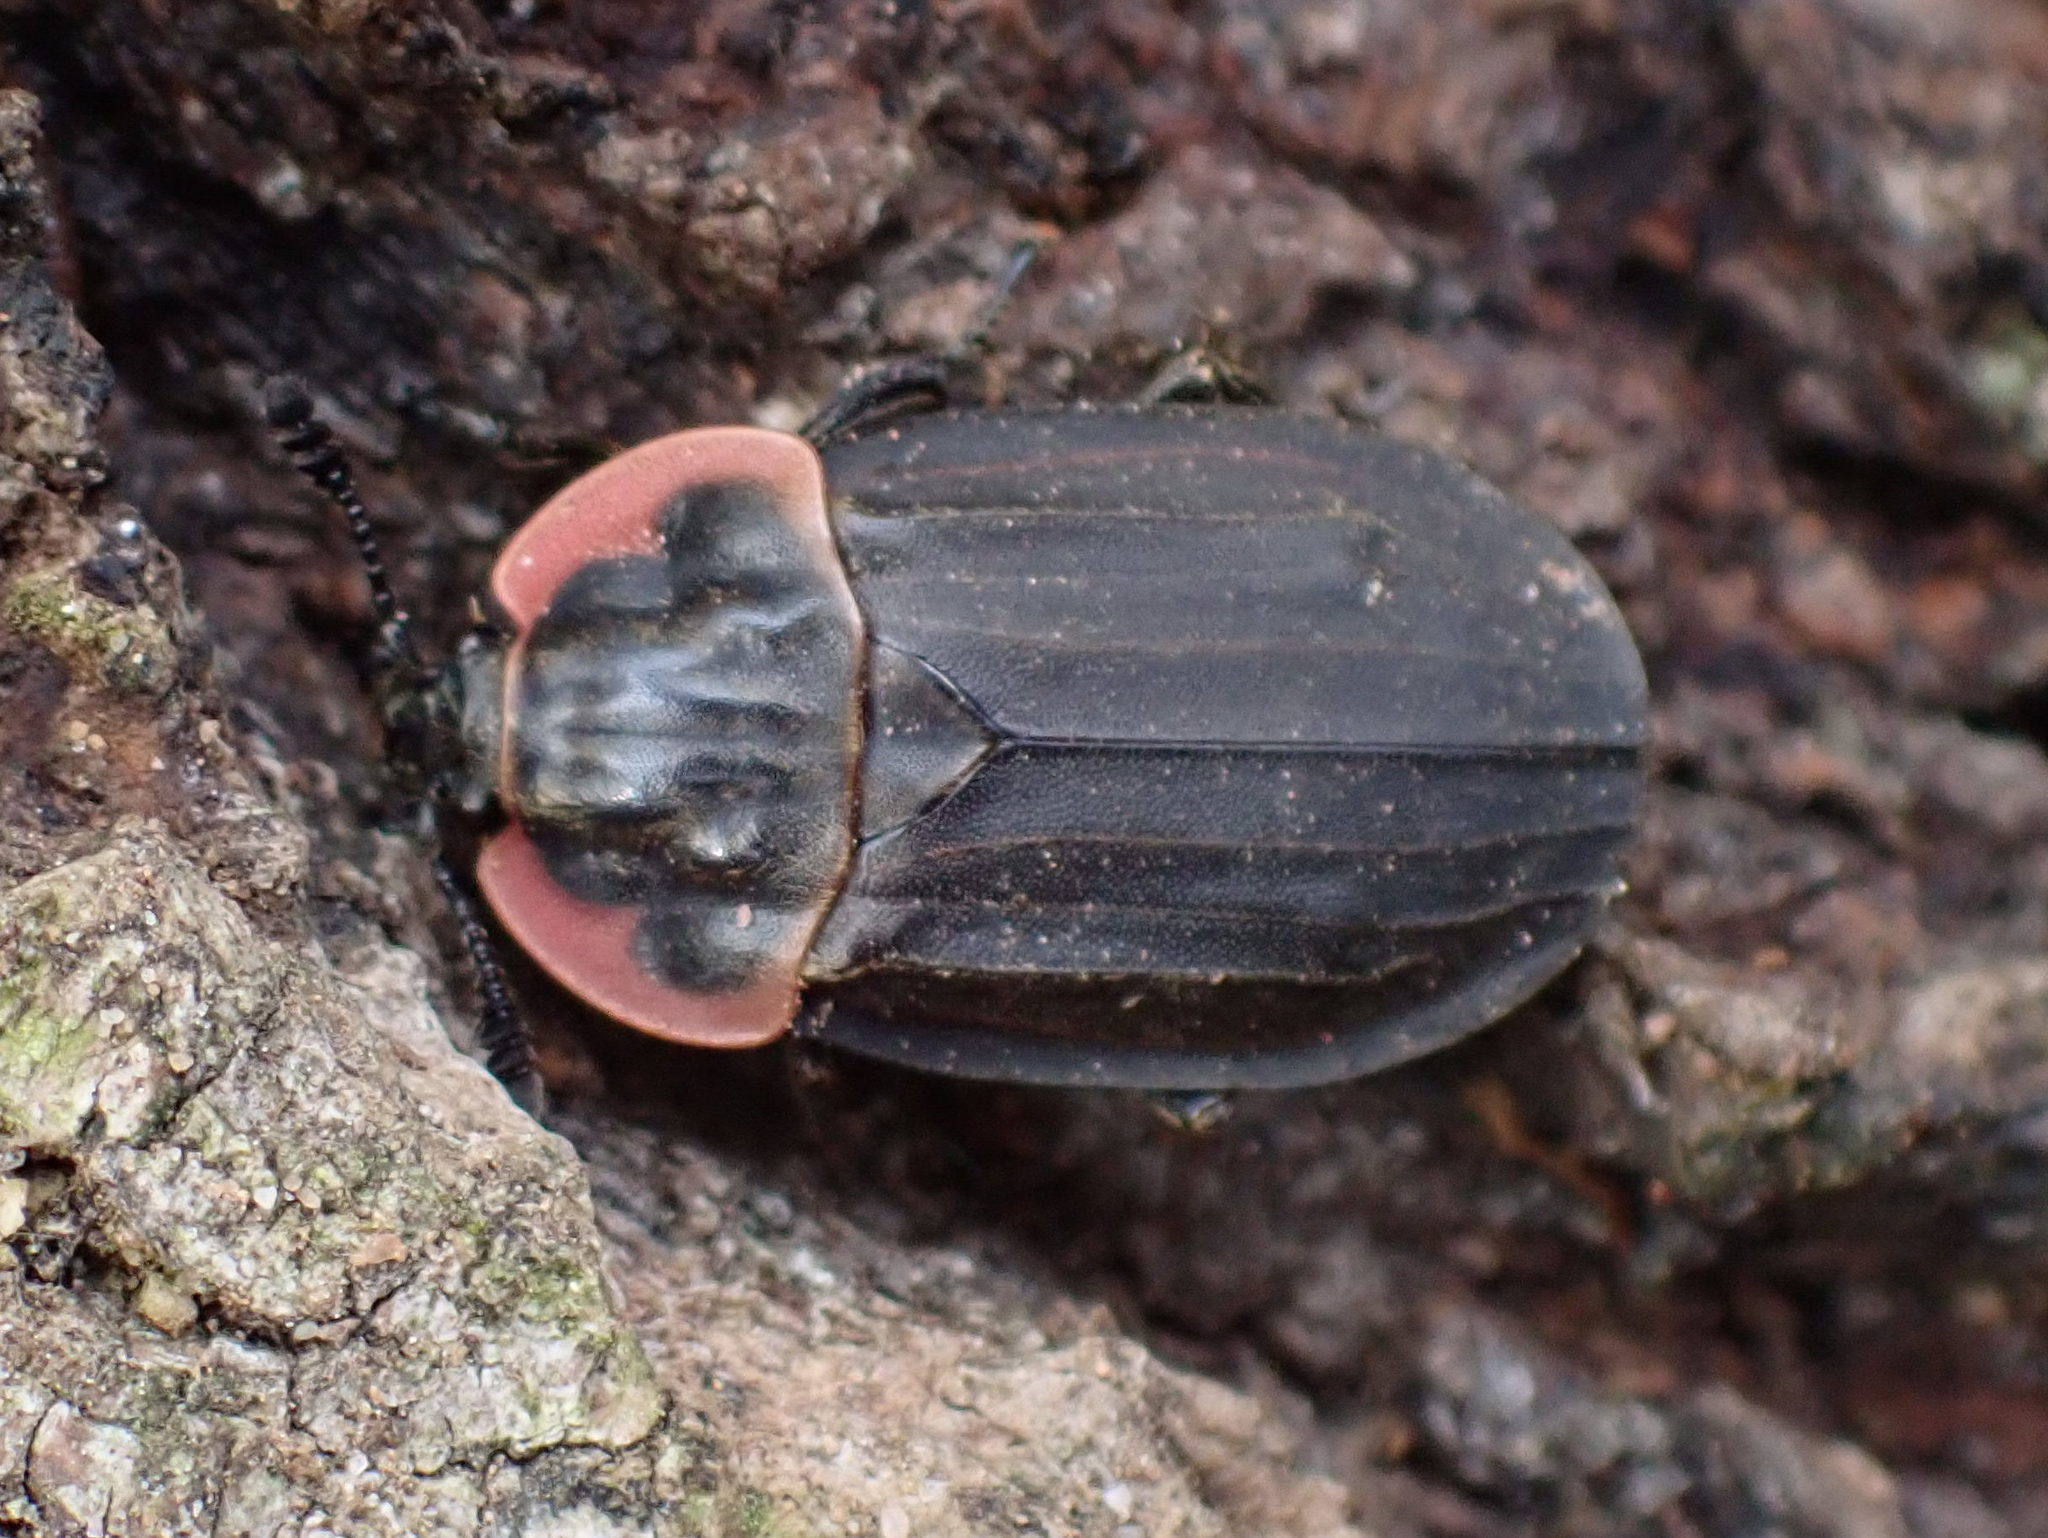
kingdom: Animalia
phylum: Arthropoda
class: Insecta
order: Coleoptera
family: Staphylinidae
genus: Oiceoptoma
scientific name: Oiceoptoma noveboracense
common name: Margined carrion beetle
